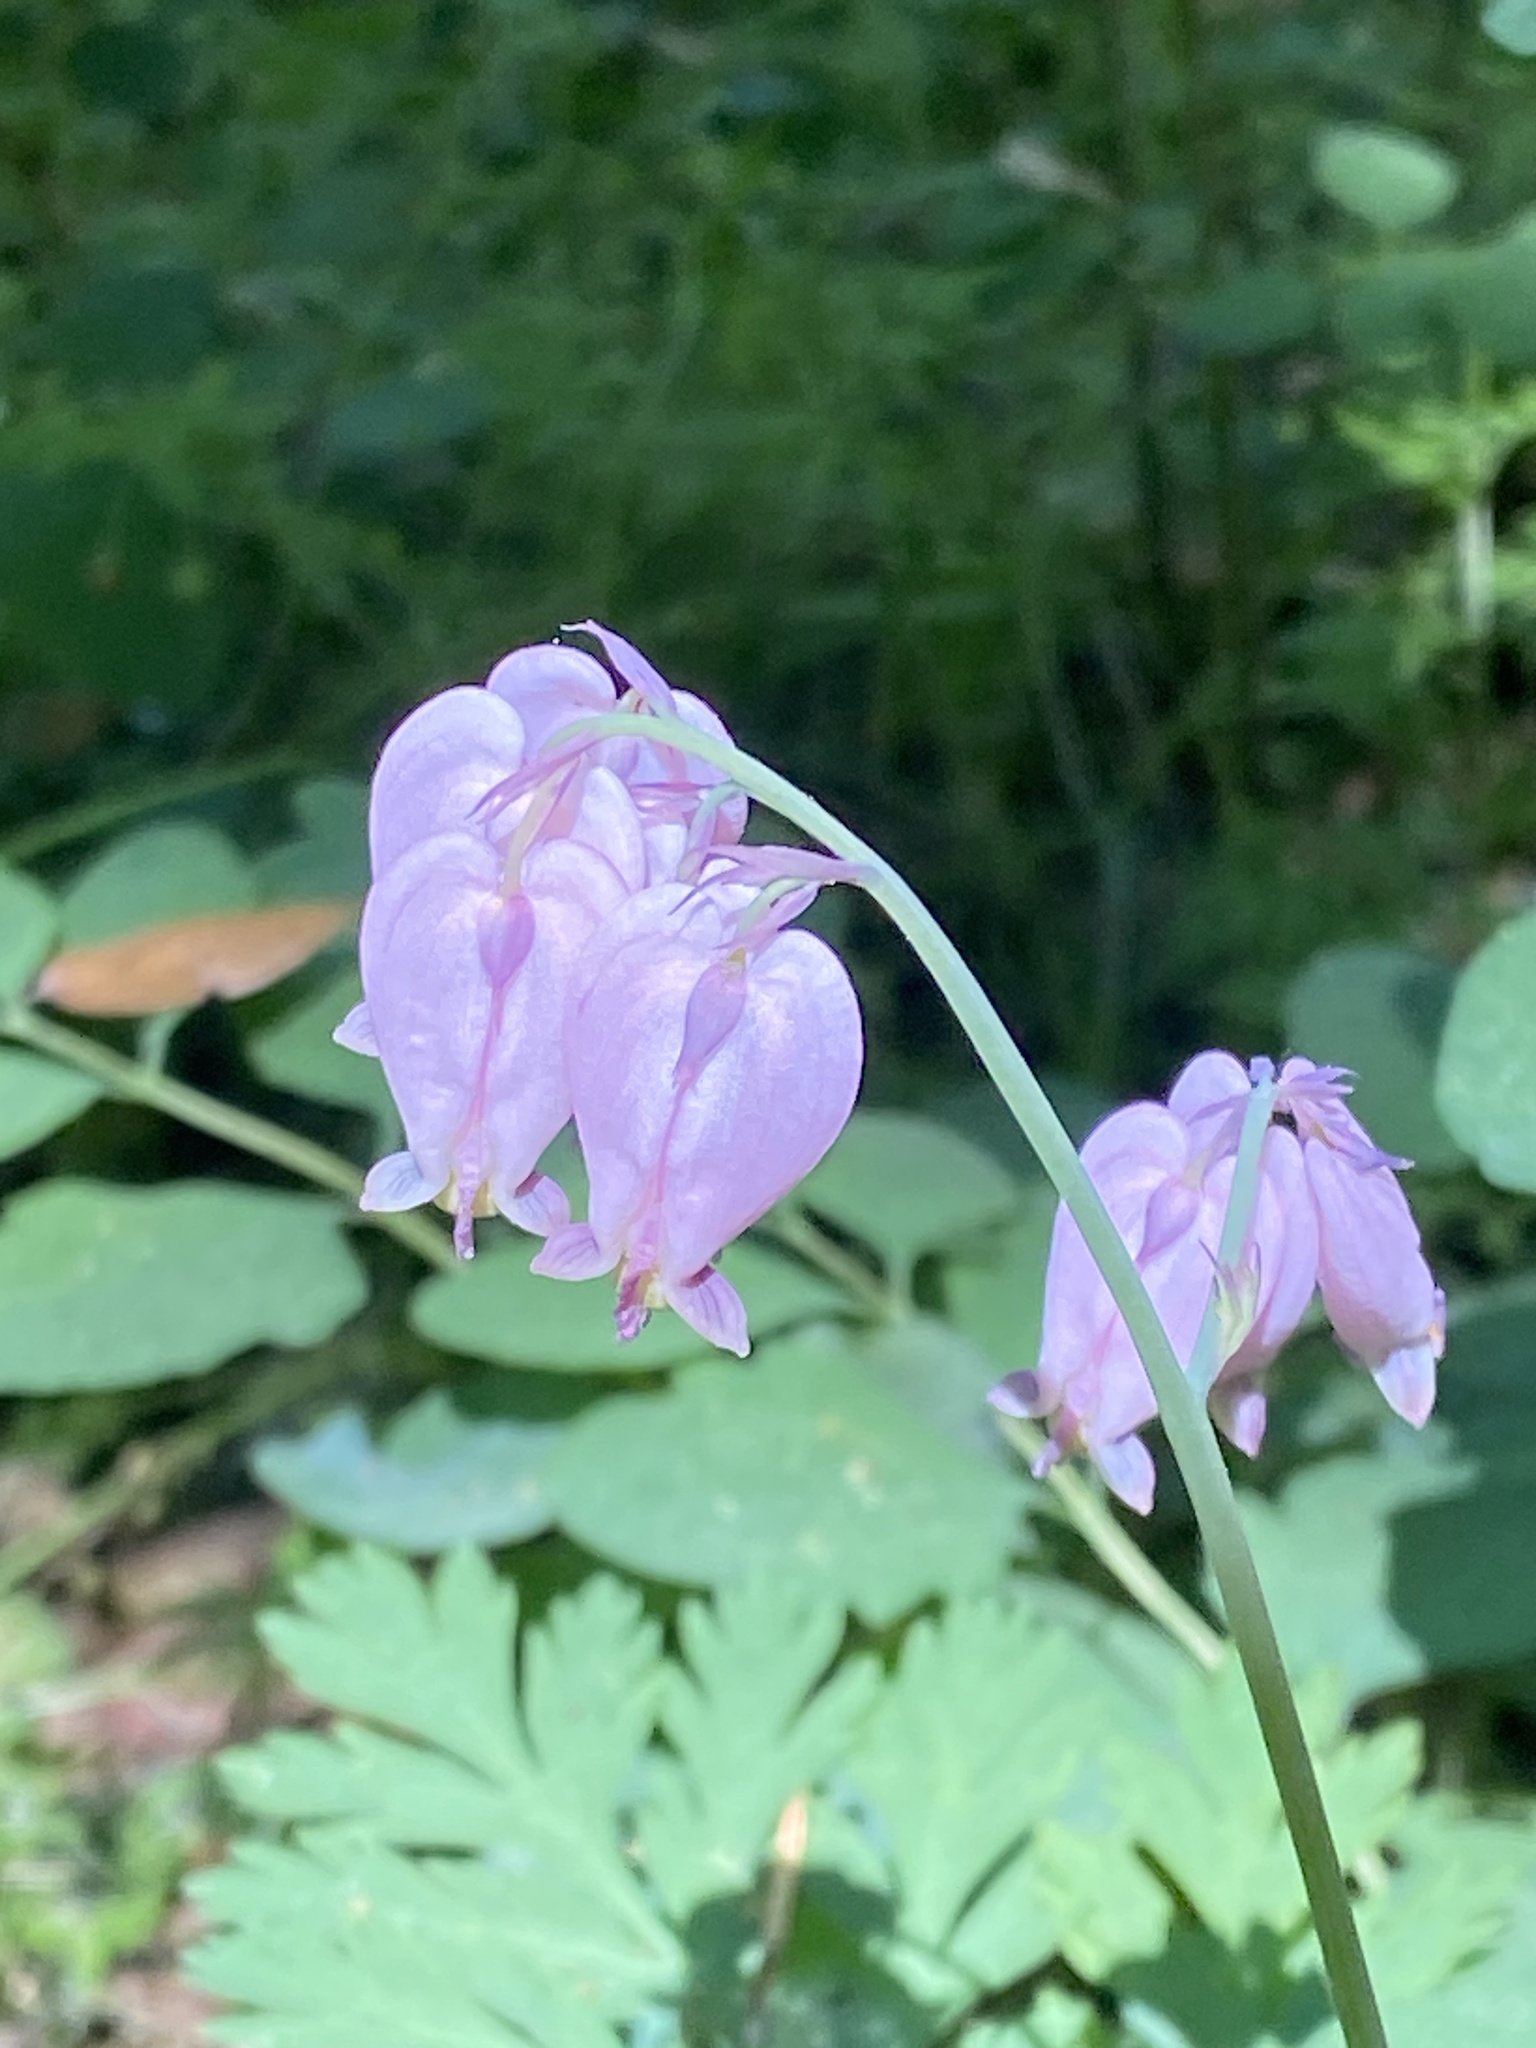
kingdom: Plantae
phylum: Tracheophyta
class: Magnoliopsida
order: Ranunculales
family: Papaveraceae
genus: Dicentra
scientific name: Dicentra formosa
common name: Bleeding-heart
